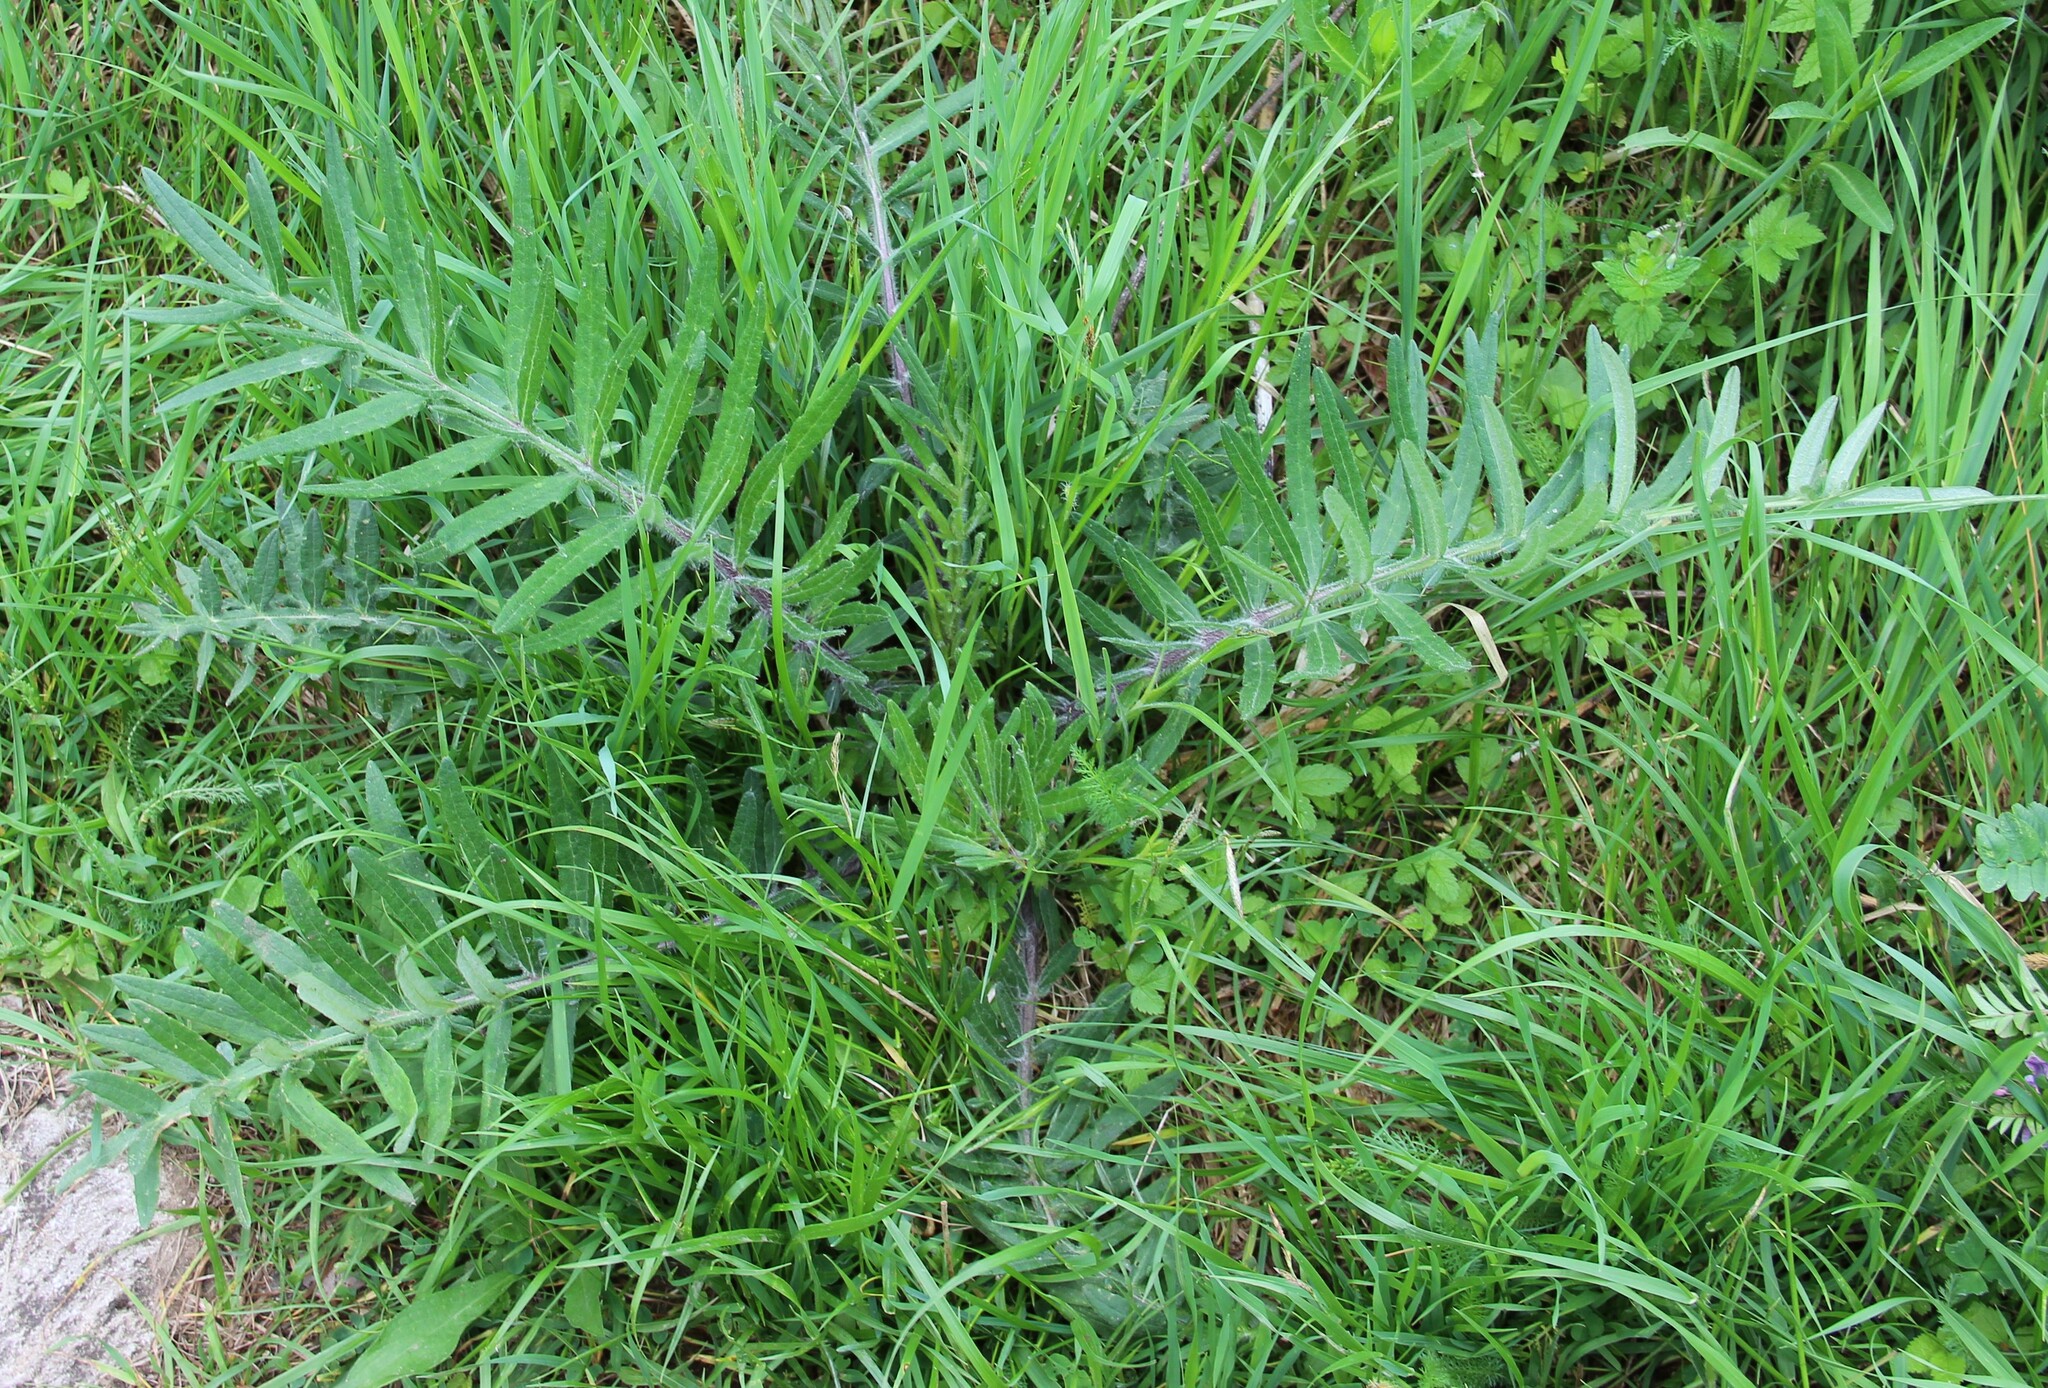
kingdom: Plantae
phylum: Tracheophyta
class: Magnoliopsida
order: Asterales
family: Asteraceae
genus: Lophiolepis
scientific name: Lophiolepis decussata
